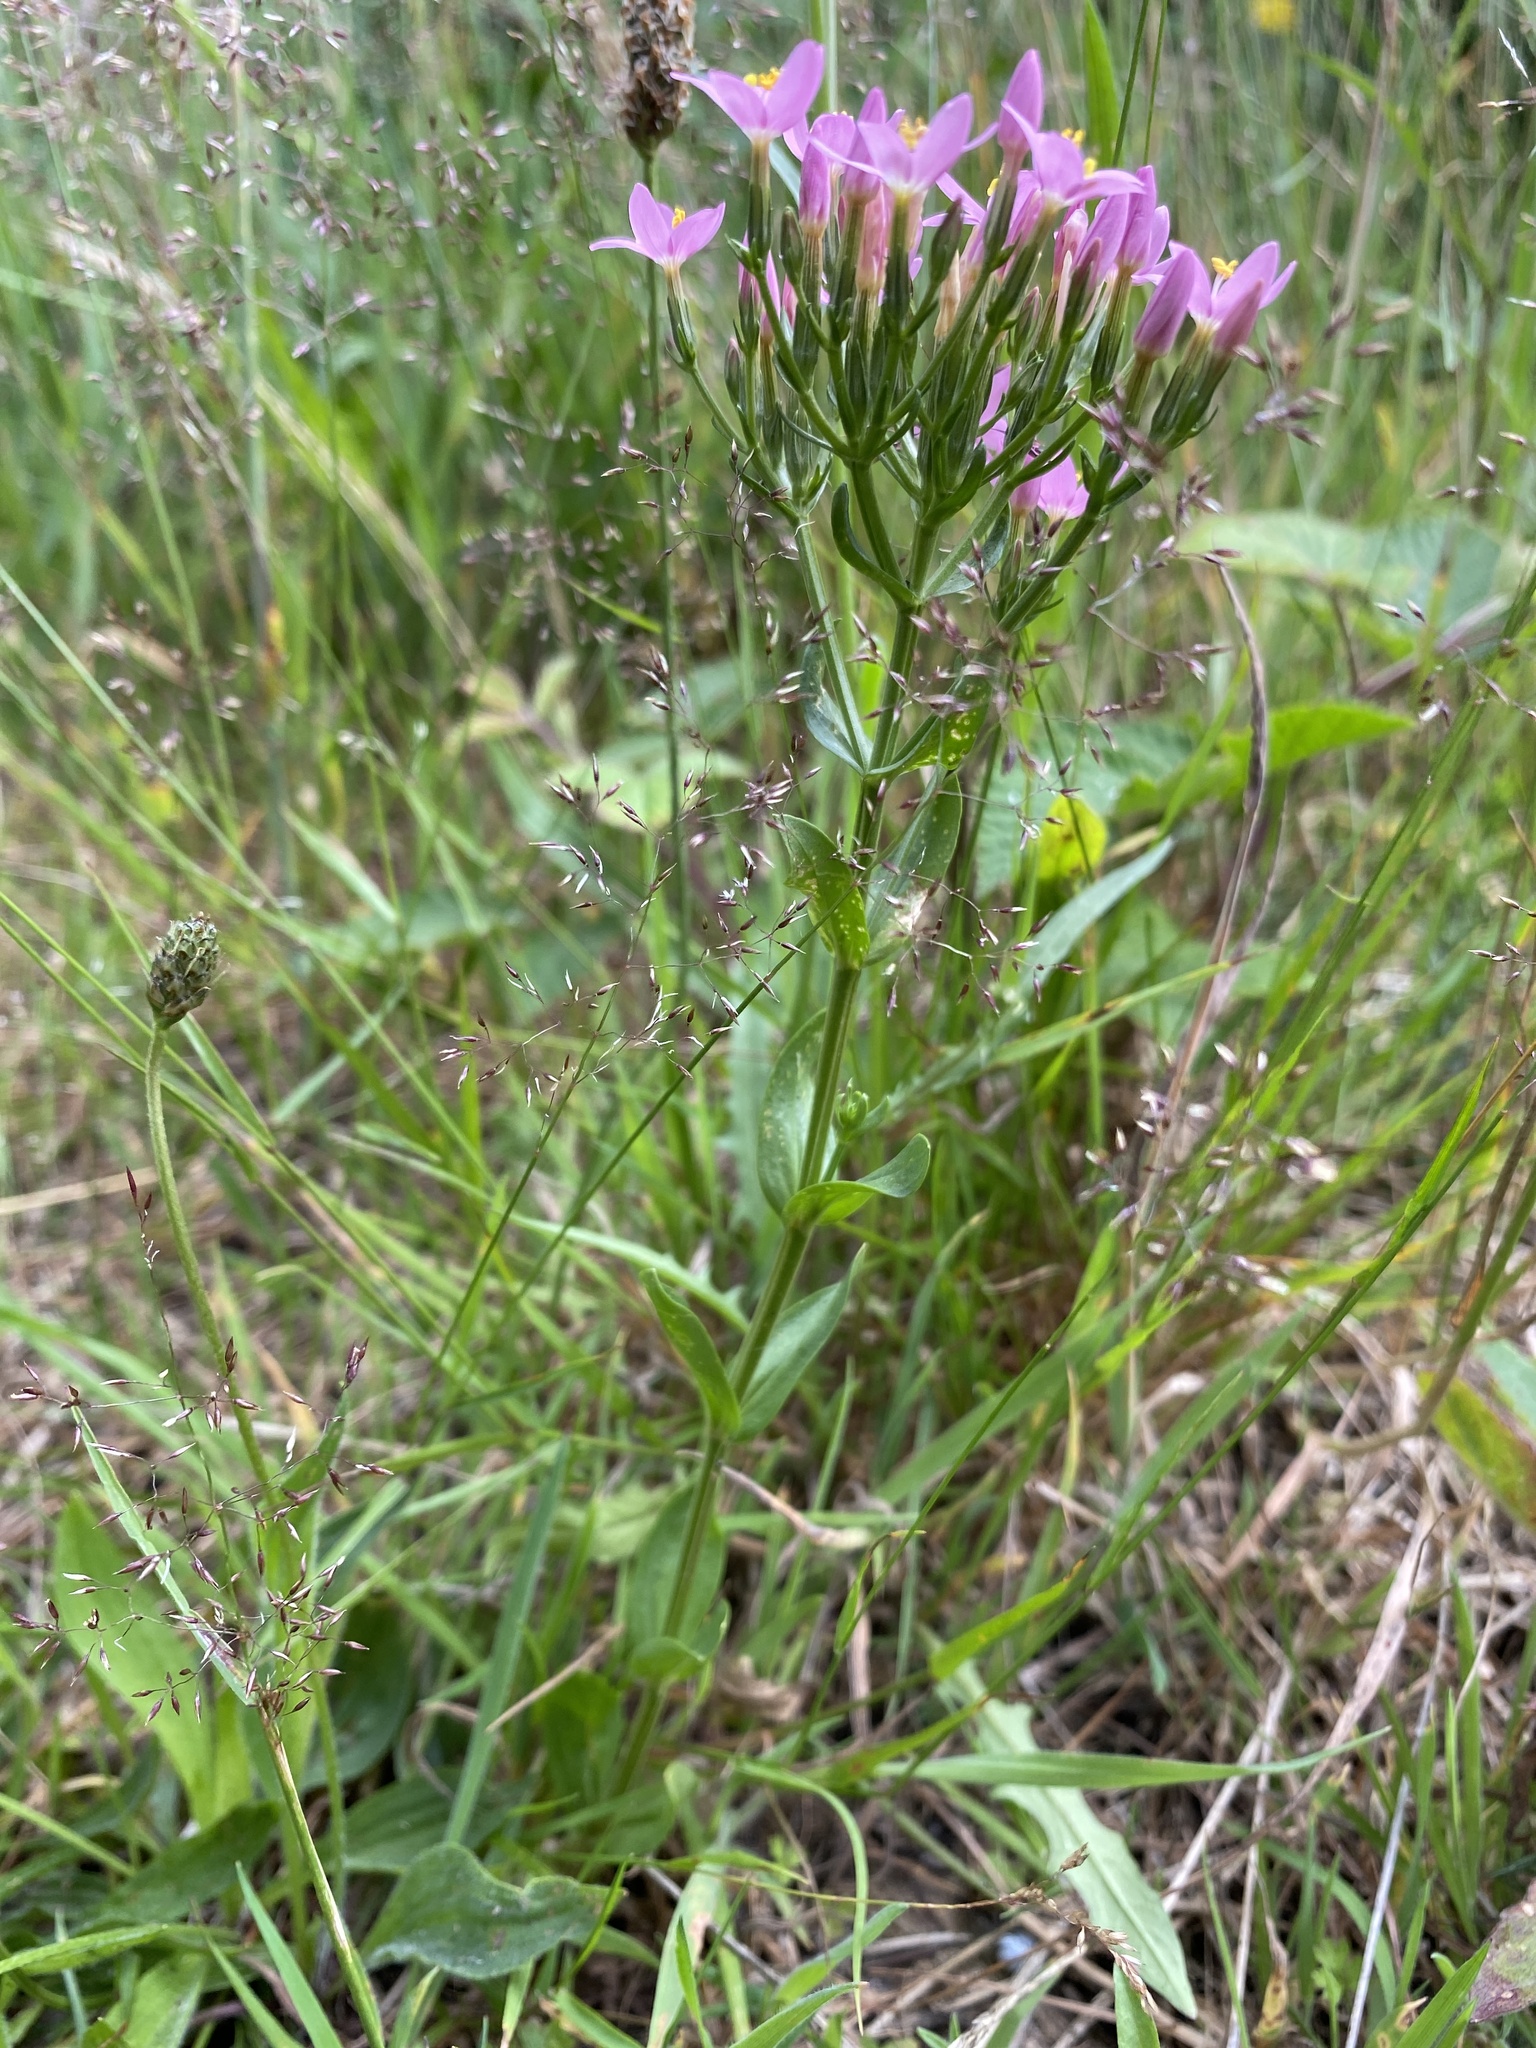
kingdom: Plantae
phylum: Tracheophyta
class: Magnoliopsida
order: Gentianales
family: Gentianaceae
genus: Centaurium
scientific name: Centaurium erythraea
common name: Common centaury
